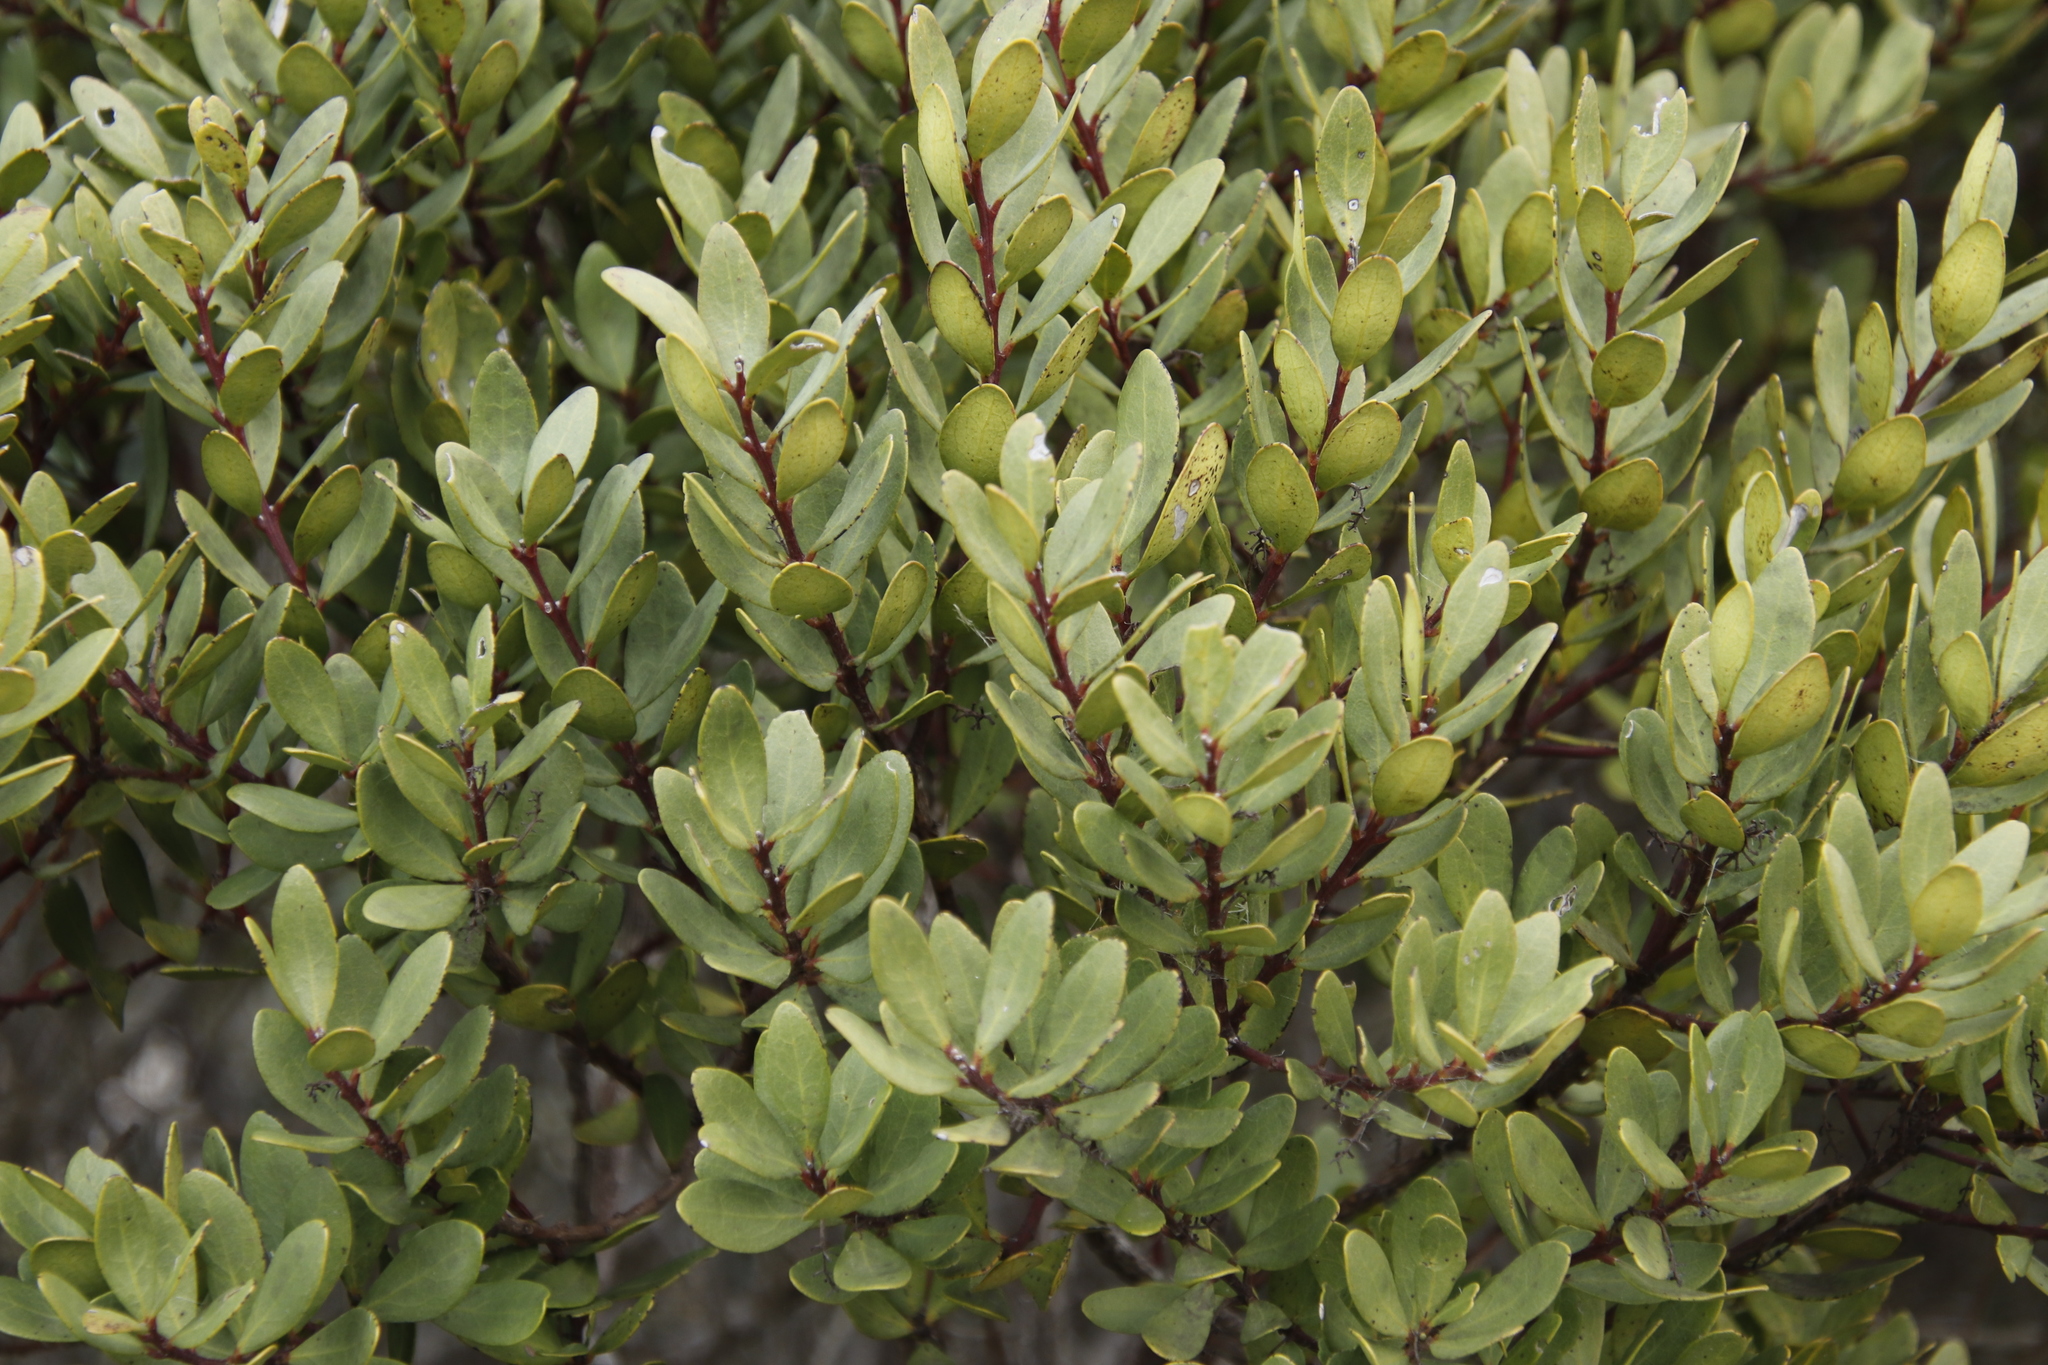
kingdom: Plantae
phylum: Tracheophyta
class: Magnoliopsida
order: Ericales
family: Ebenaceae
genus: Euclea
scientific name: Euclea racemosa
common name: Dune guarri
